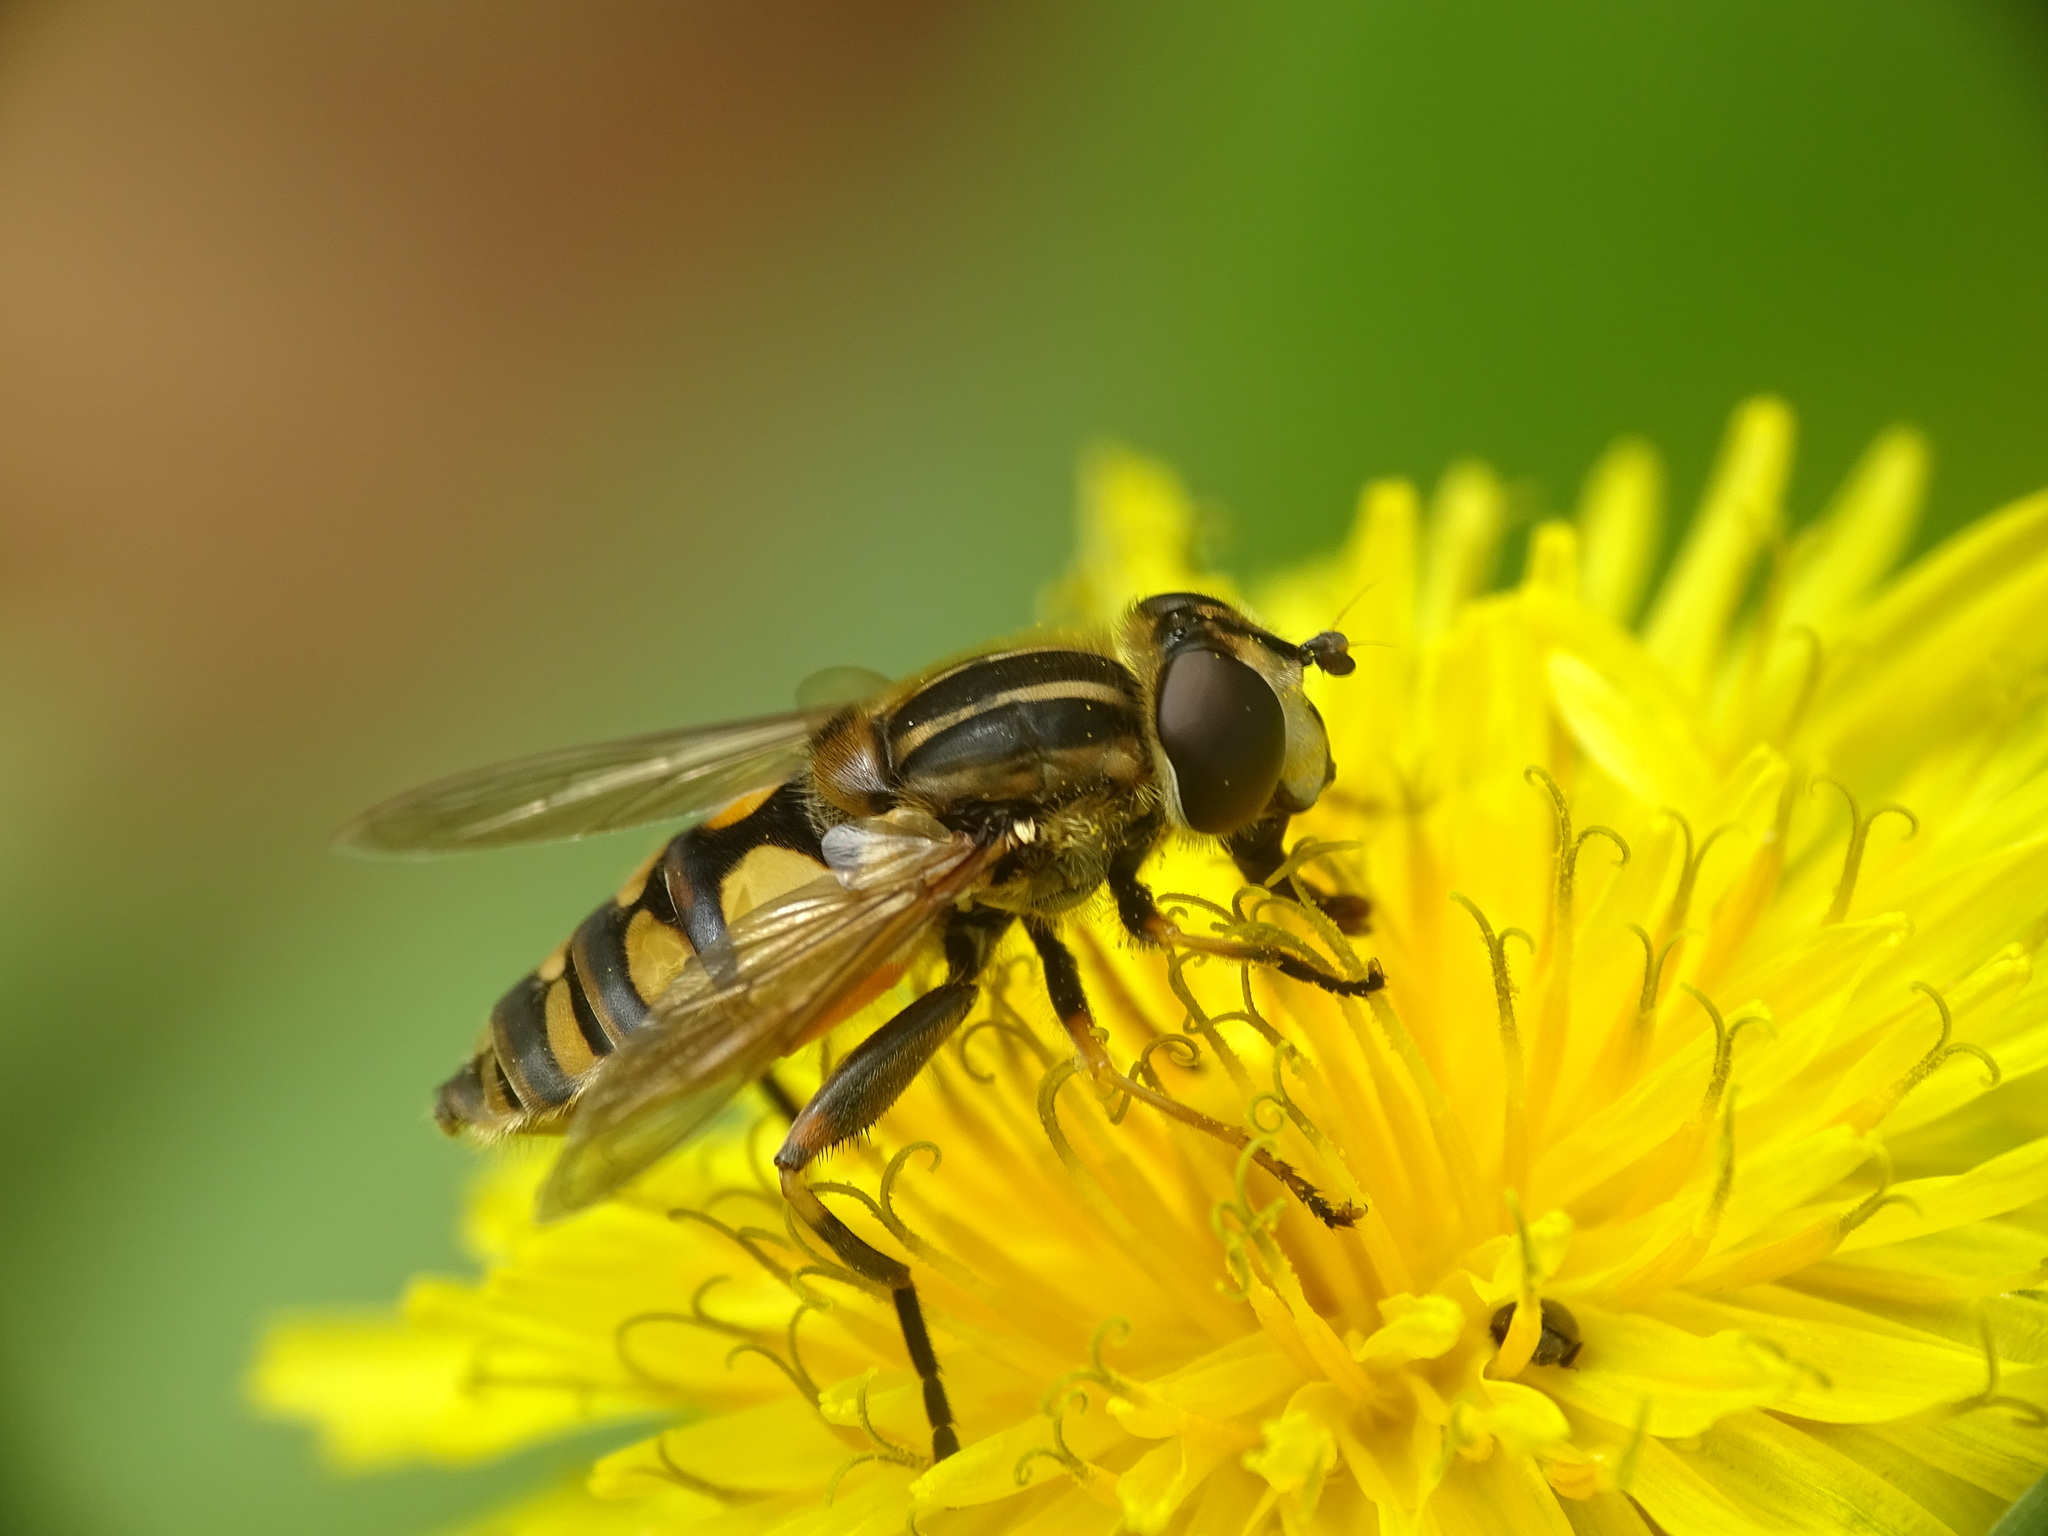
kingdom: Animalia
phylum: Arthropoda
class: Insecta
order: Diptera
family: Syrphidae
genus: Helophilus
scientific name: Helophilus hybridus
